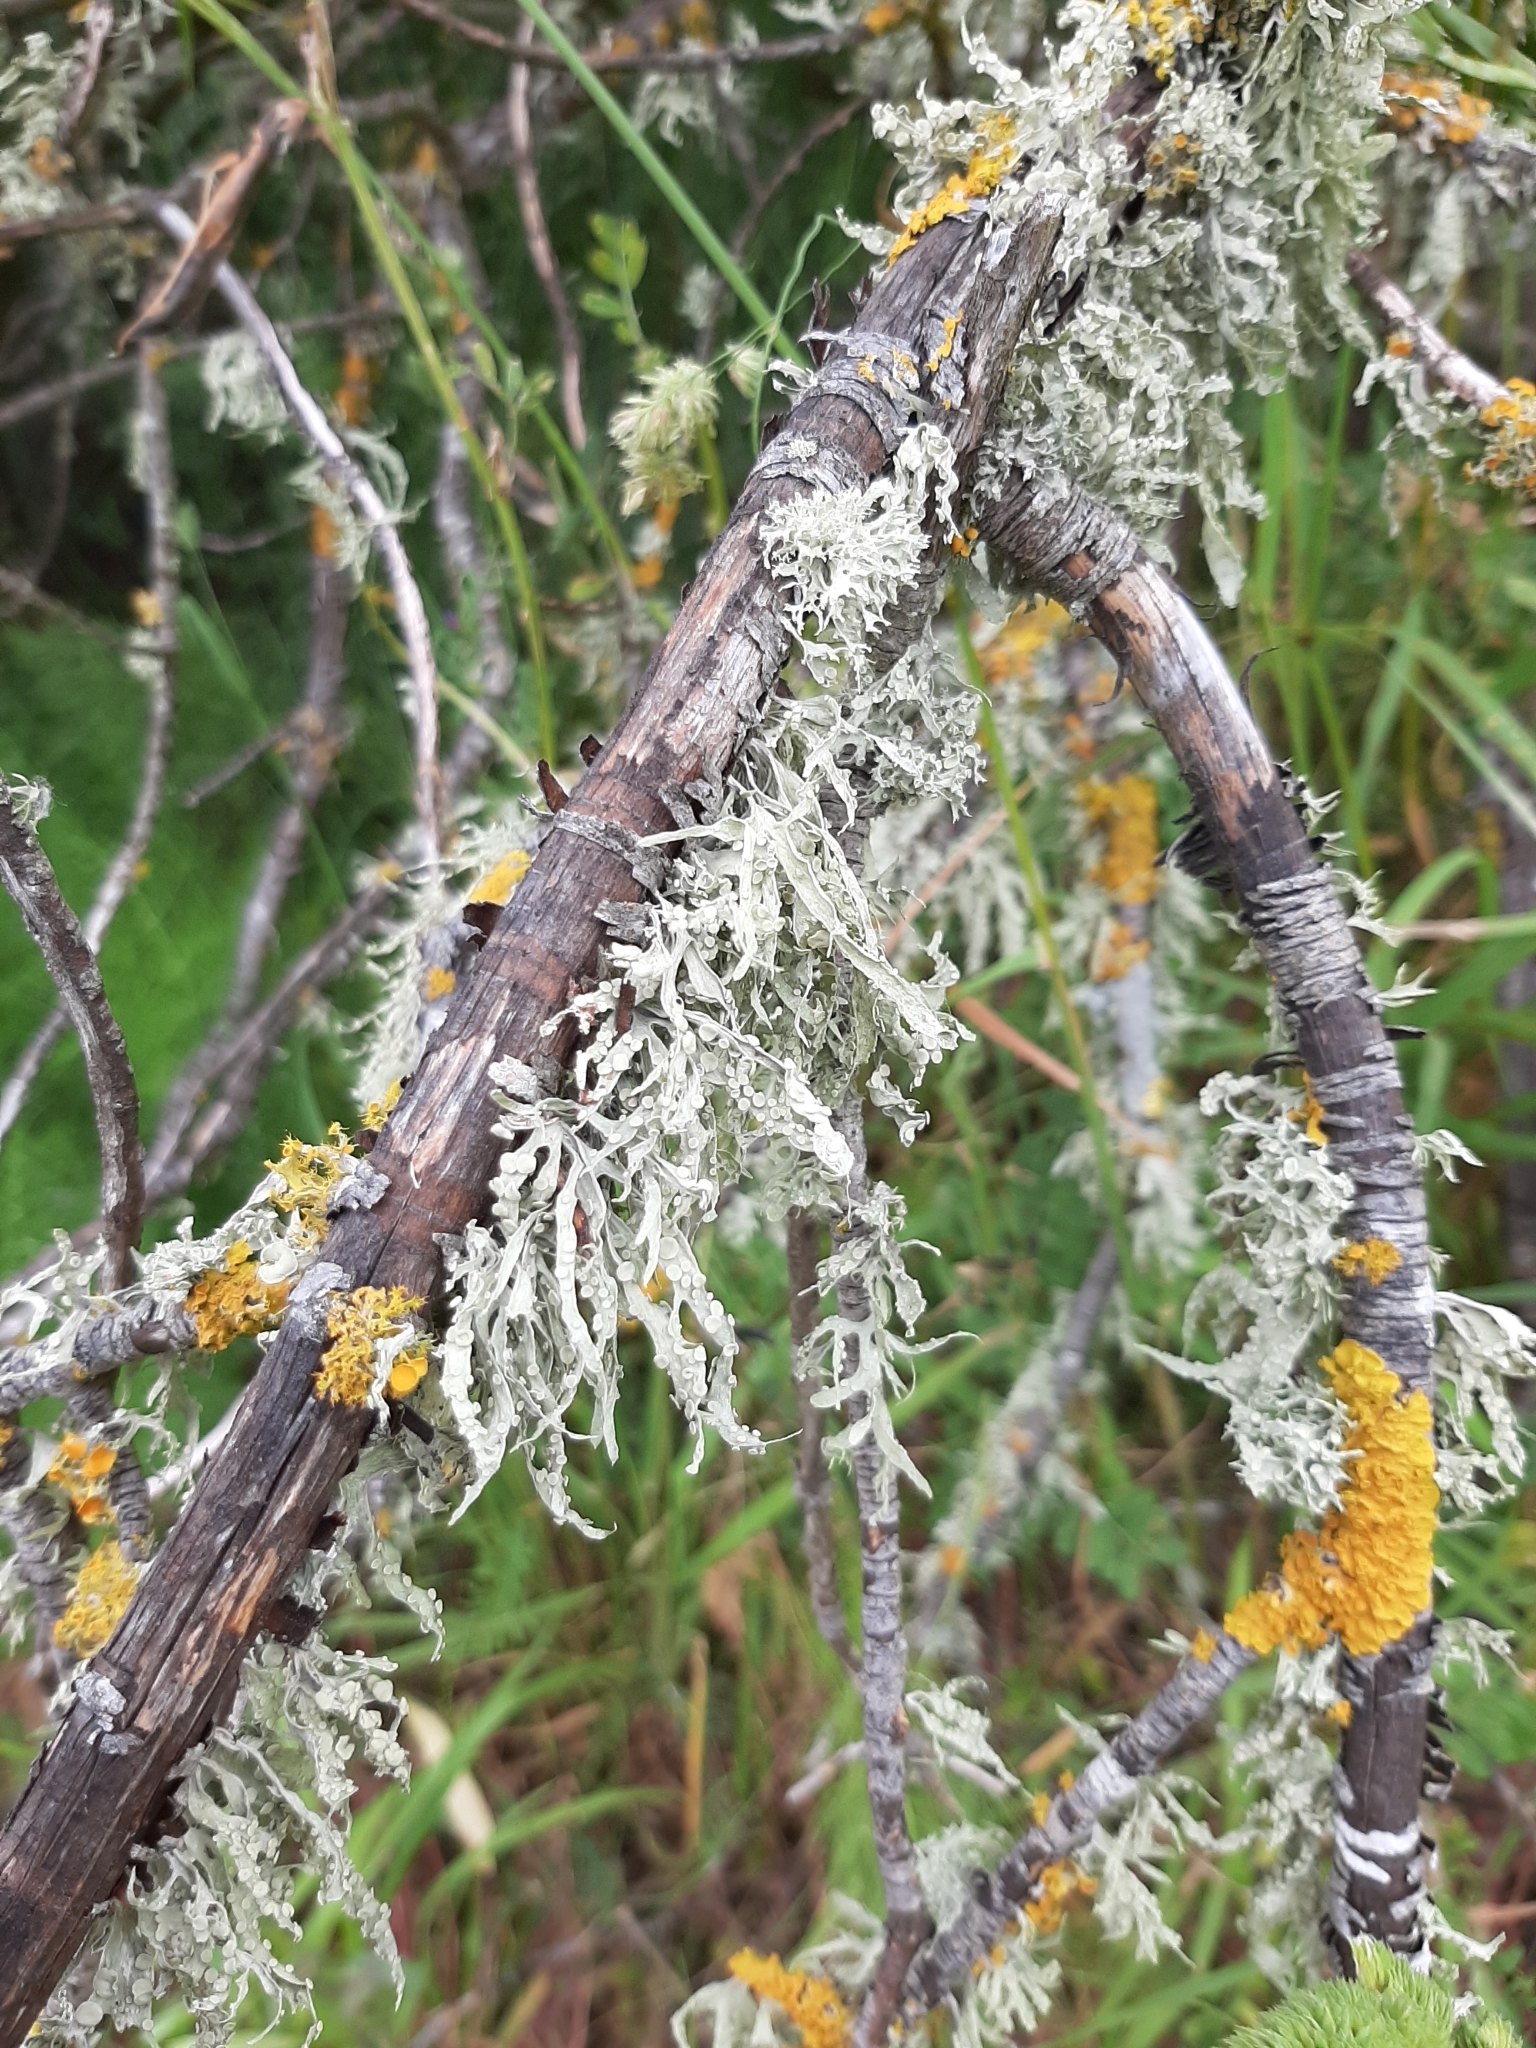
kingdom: Fungi
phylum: Ascomycota
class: Lecanoromycetes
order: Lecanorales
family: Ramalinaceae
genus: Ramalina
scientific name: Ramalina celastri
